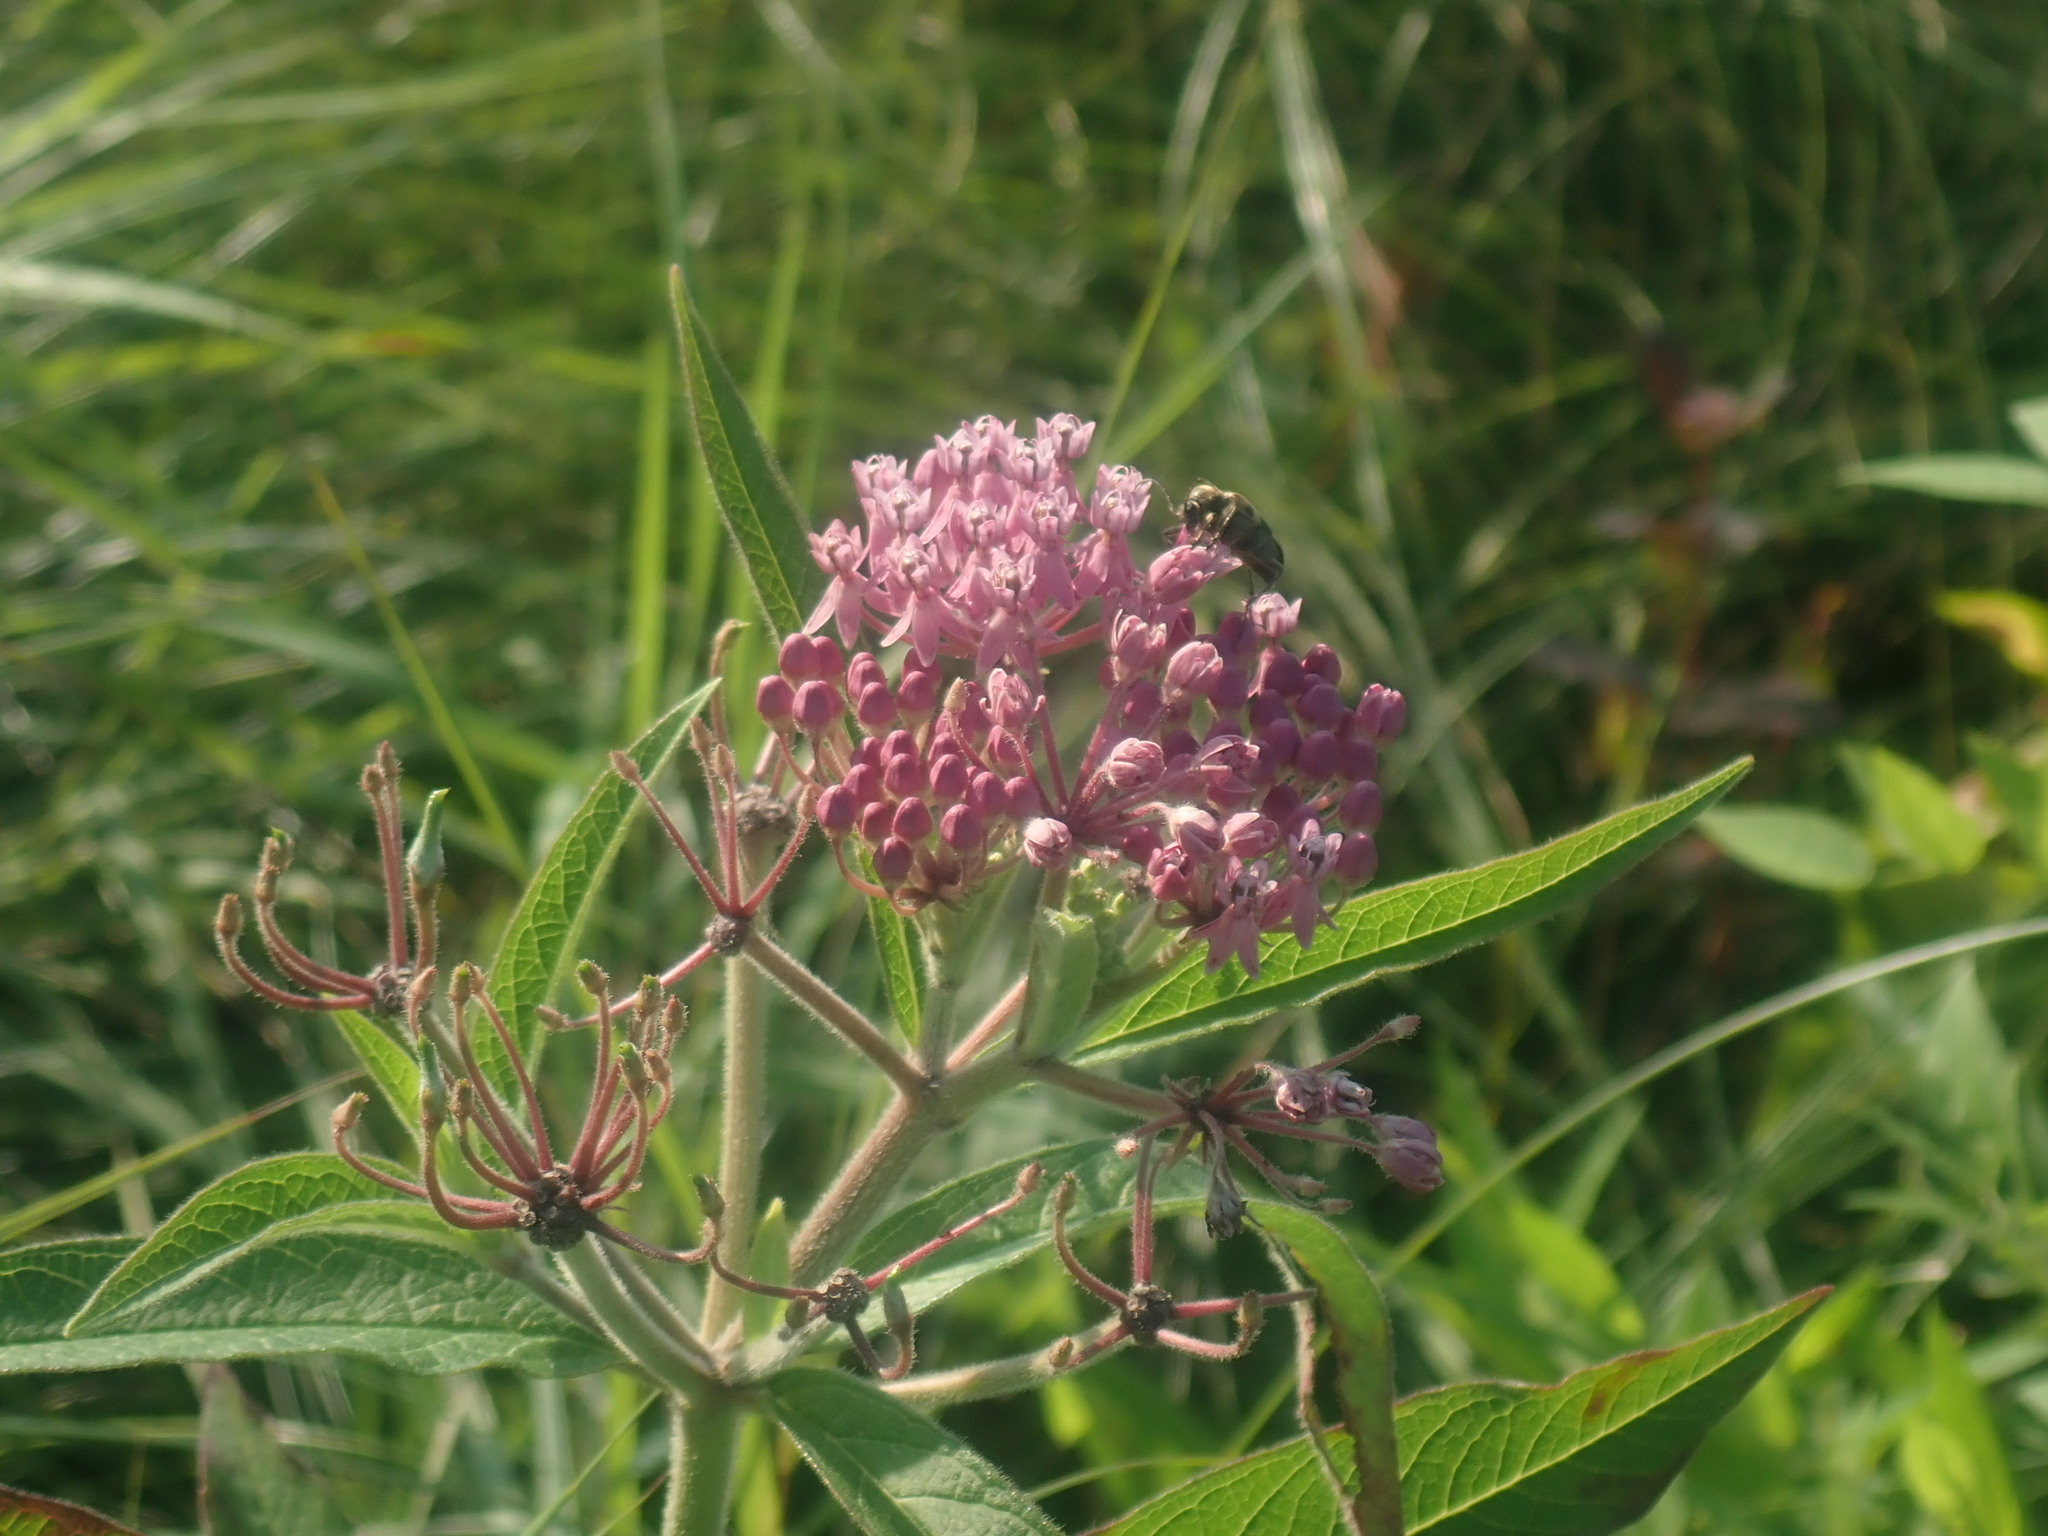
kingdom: Plantae
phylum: Tracheophyta
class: Magnoliopsida
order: Gentianales
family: Apocynaceae
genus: Asclepias
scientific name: Asclepias incarnata
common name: Swamp milkweed
